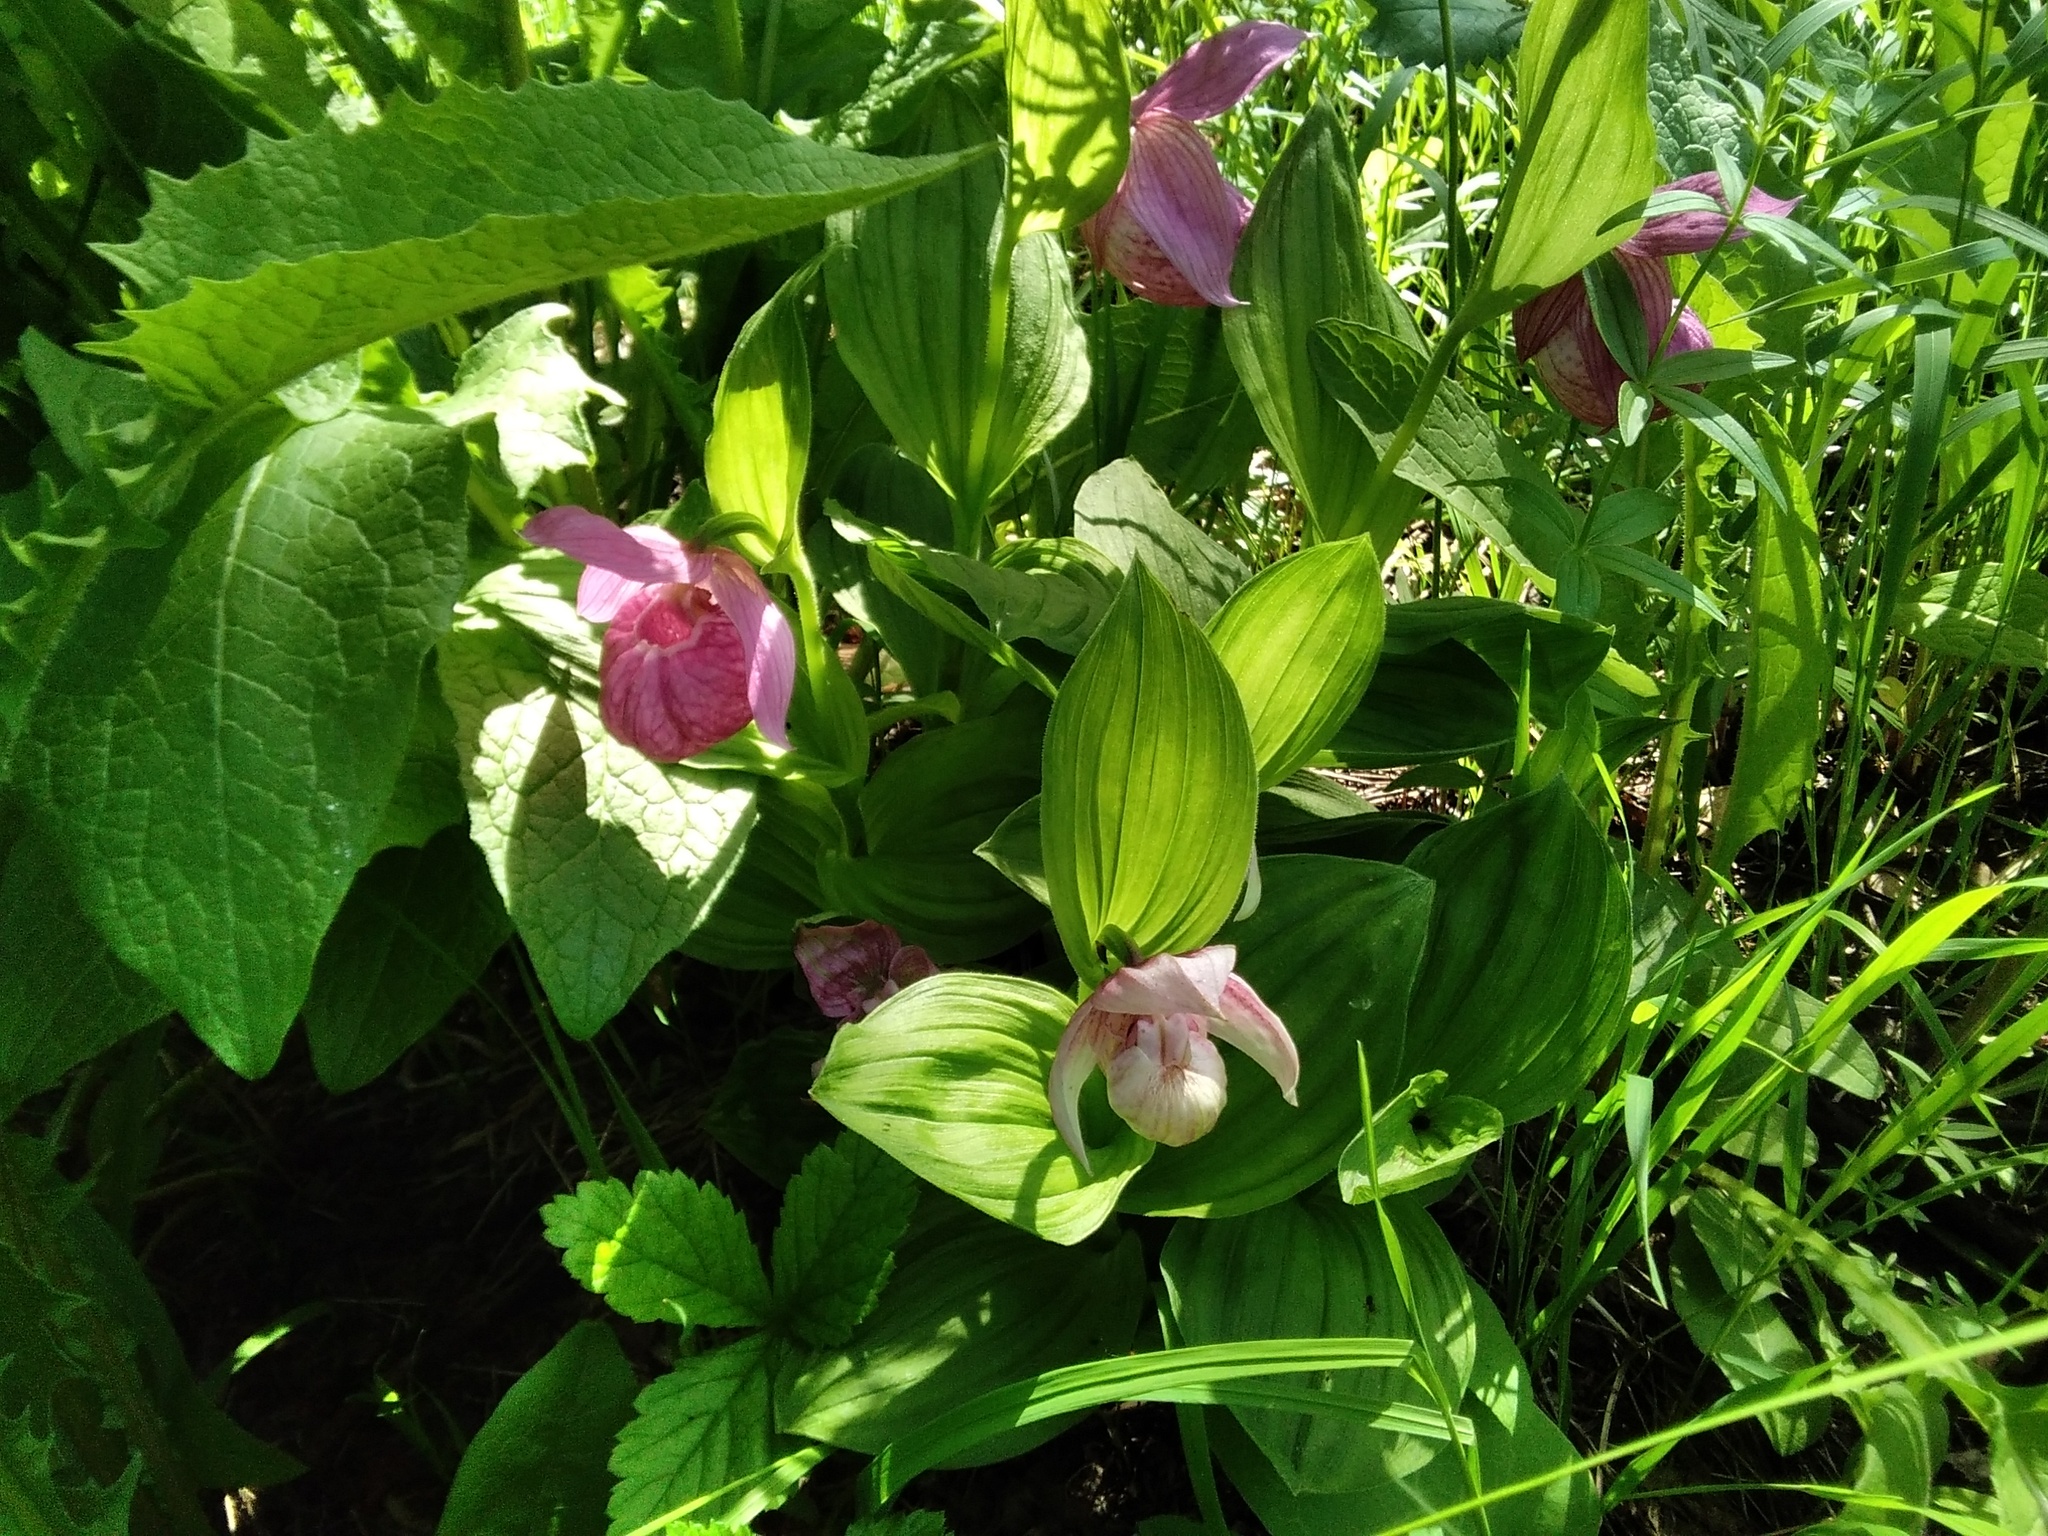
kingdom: Plantae
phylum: Tracheophyta
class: Liliopsida
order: Asparagales
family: Orchidaceae
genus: Cypripedium
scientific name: Cypripedium macranthos
